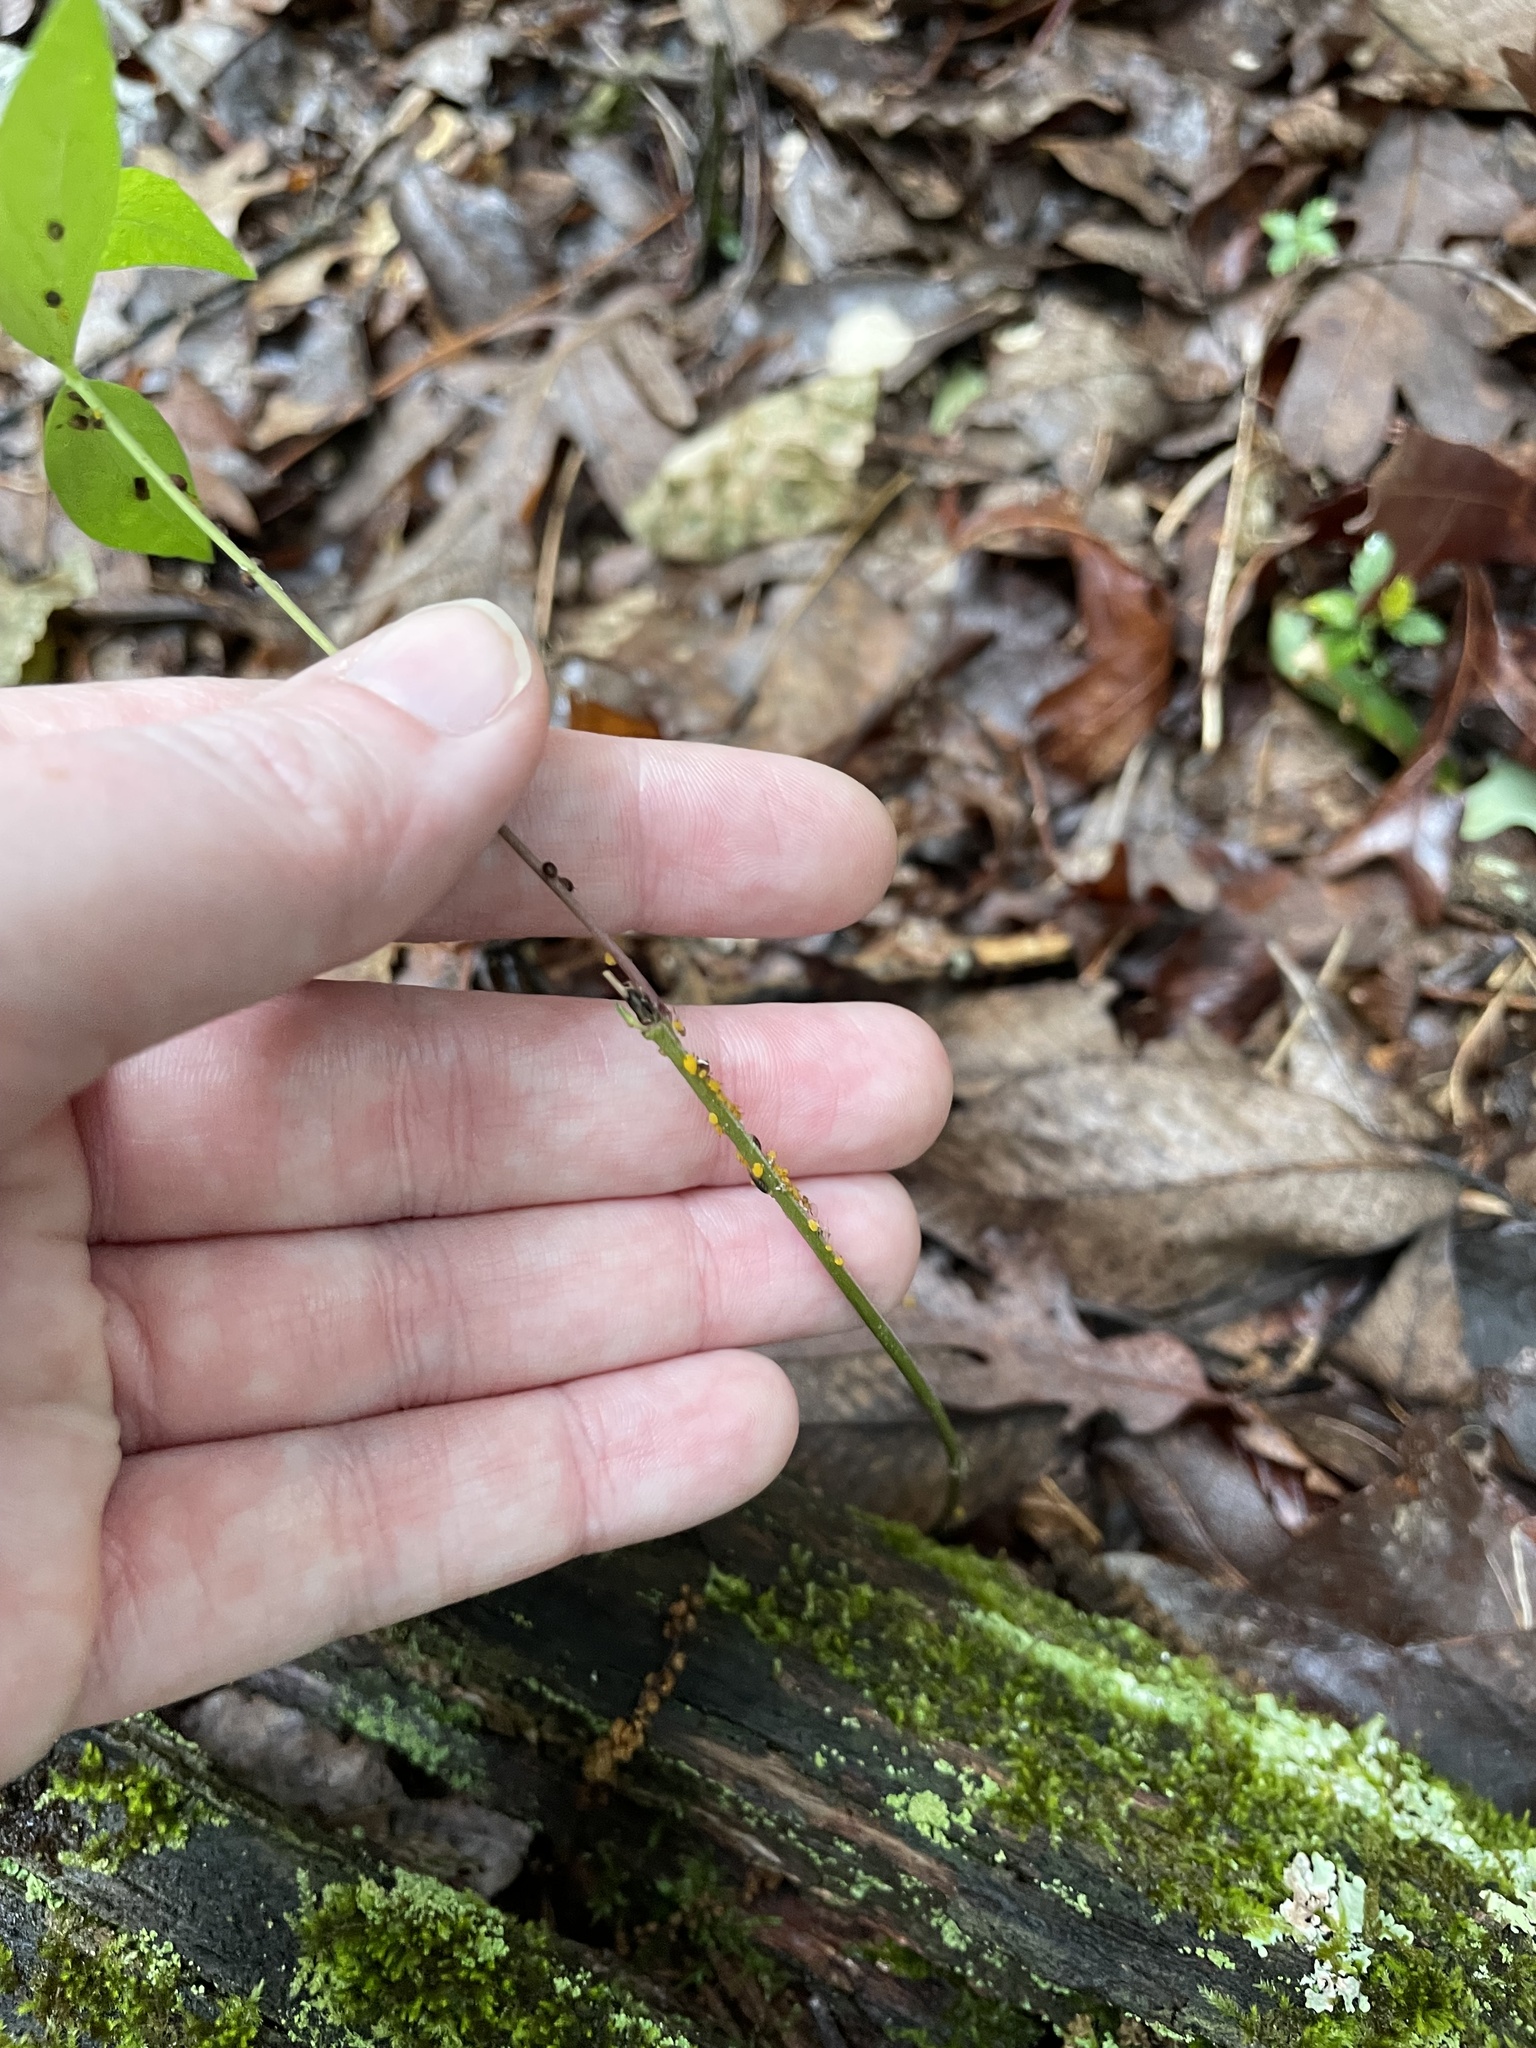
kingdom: Animalia
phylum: Arthropoda
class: Insecta
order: Hemiptera
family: Aphididae
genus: Aphis
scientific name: Aphis nerii
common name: Oleander aphid
